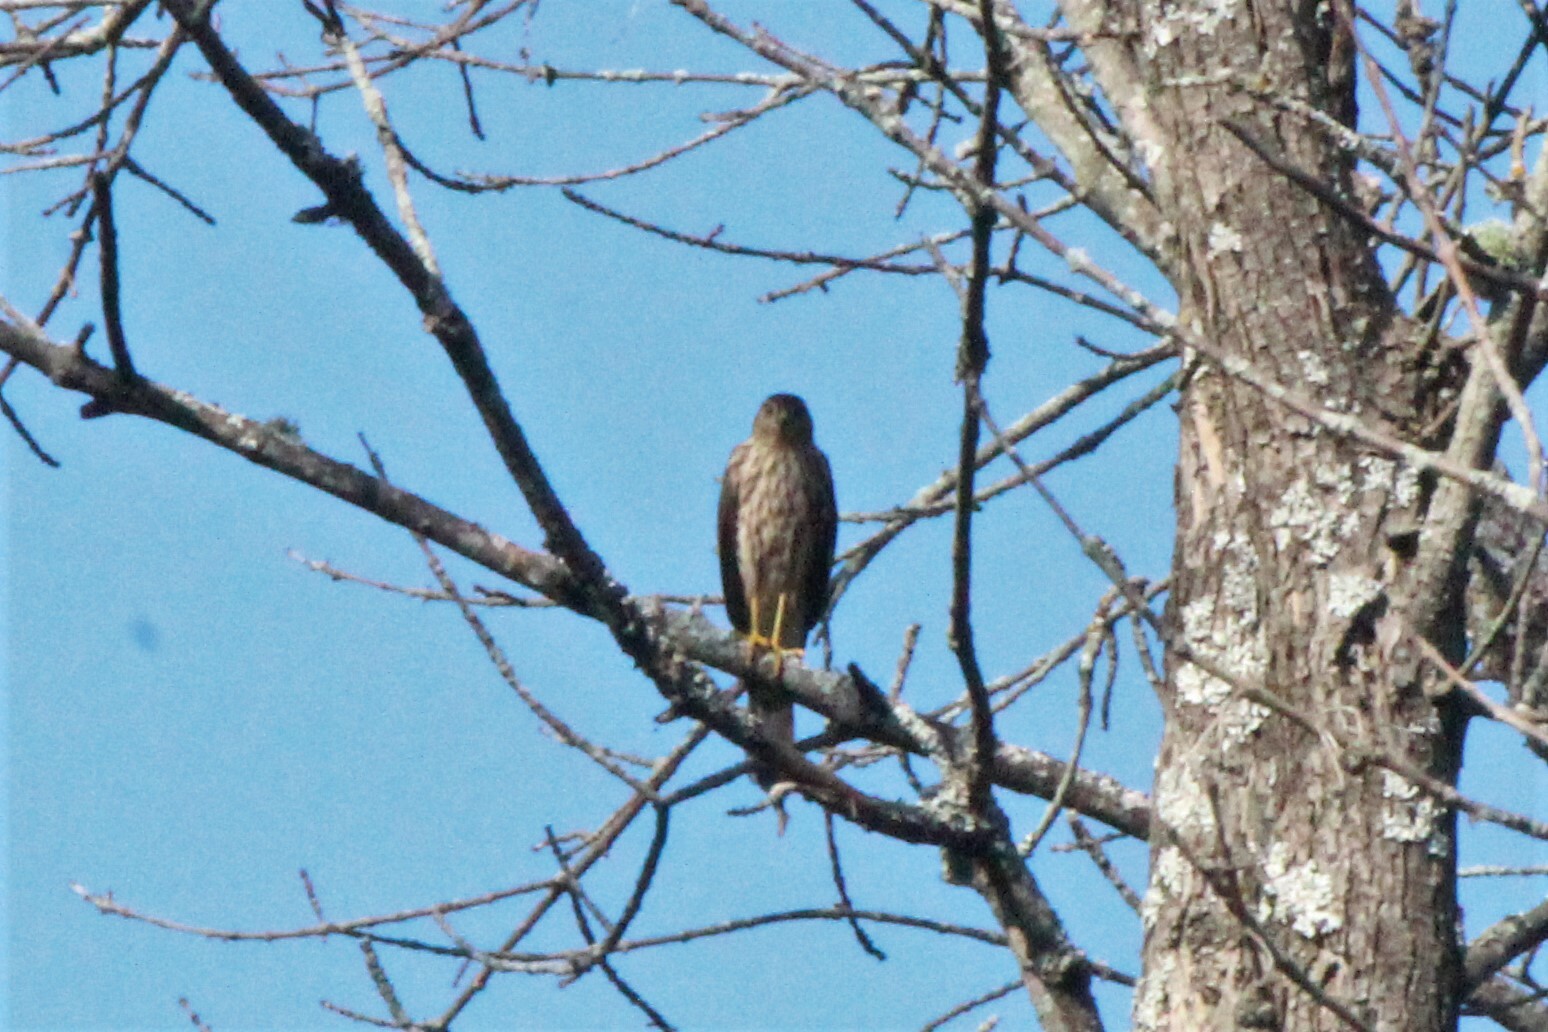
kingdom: Animalia
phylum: Chordata
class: Aves
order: Accipitriformes
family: Accipitridae
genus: Accipiter
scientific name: Accipiter striatus
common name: Sharp-shinned hawk
